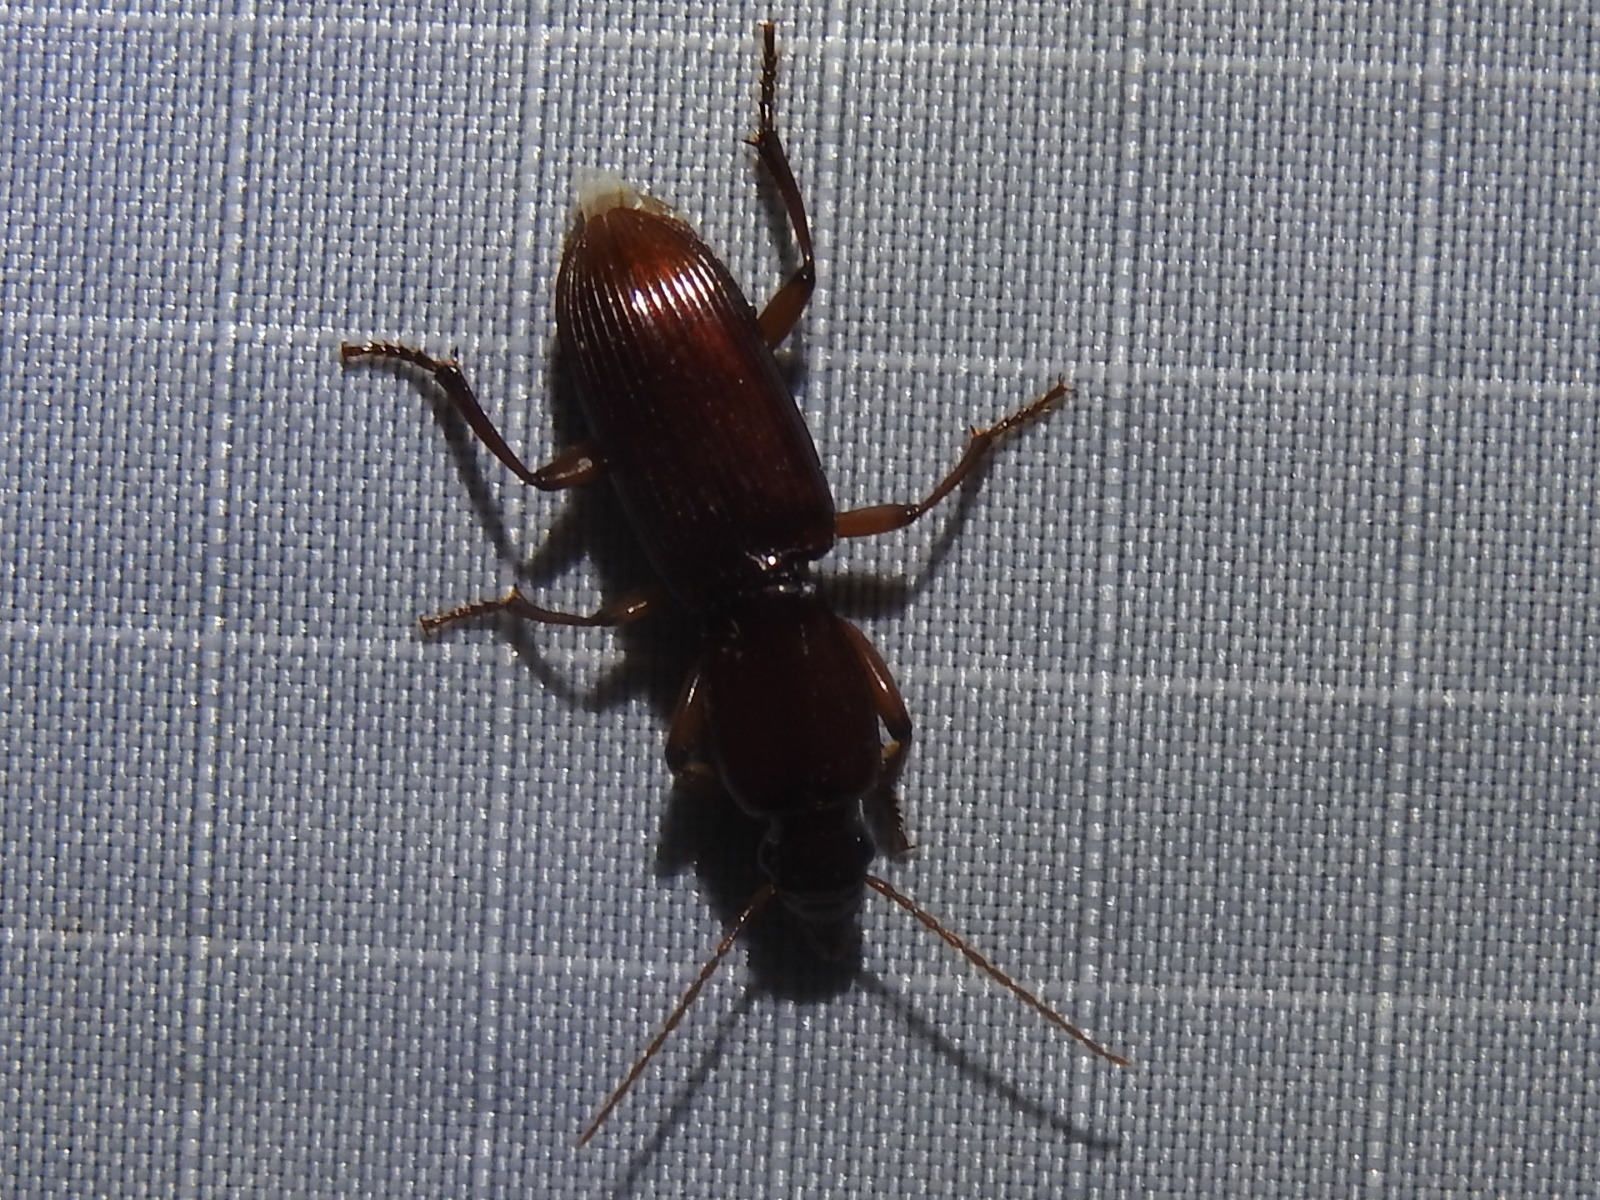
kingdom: Animalia
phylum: Arthropoda
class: Insecta
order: Coleoptera
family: Carabidae
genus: Stenomorphus
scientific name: Stenomorphus californicus
